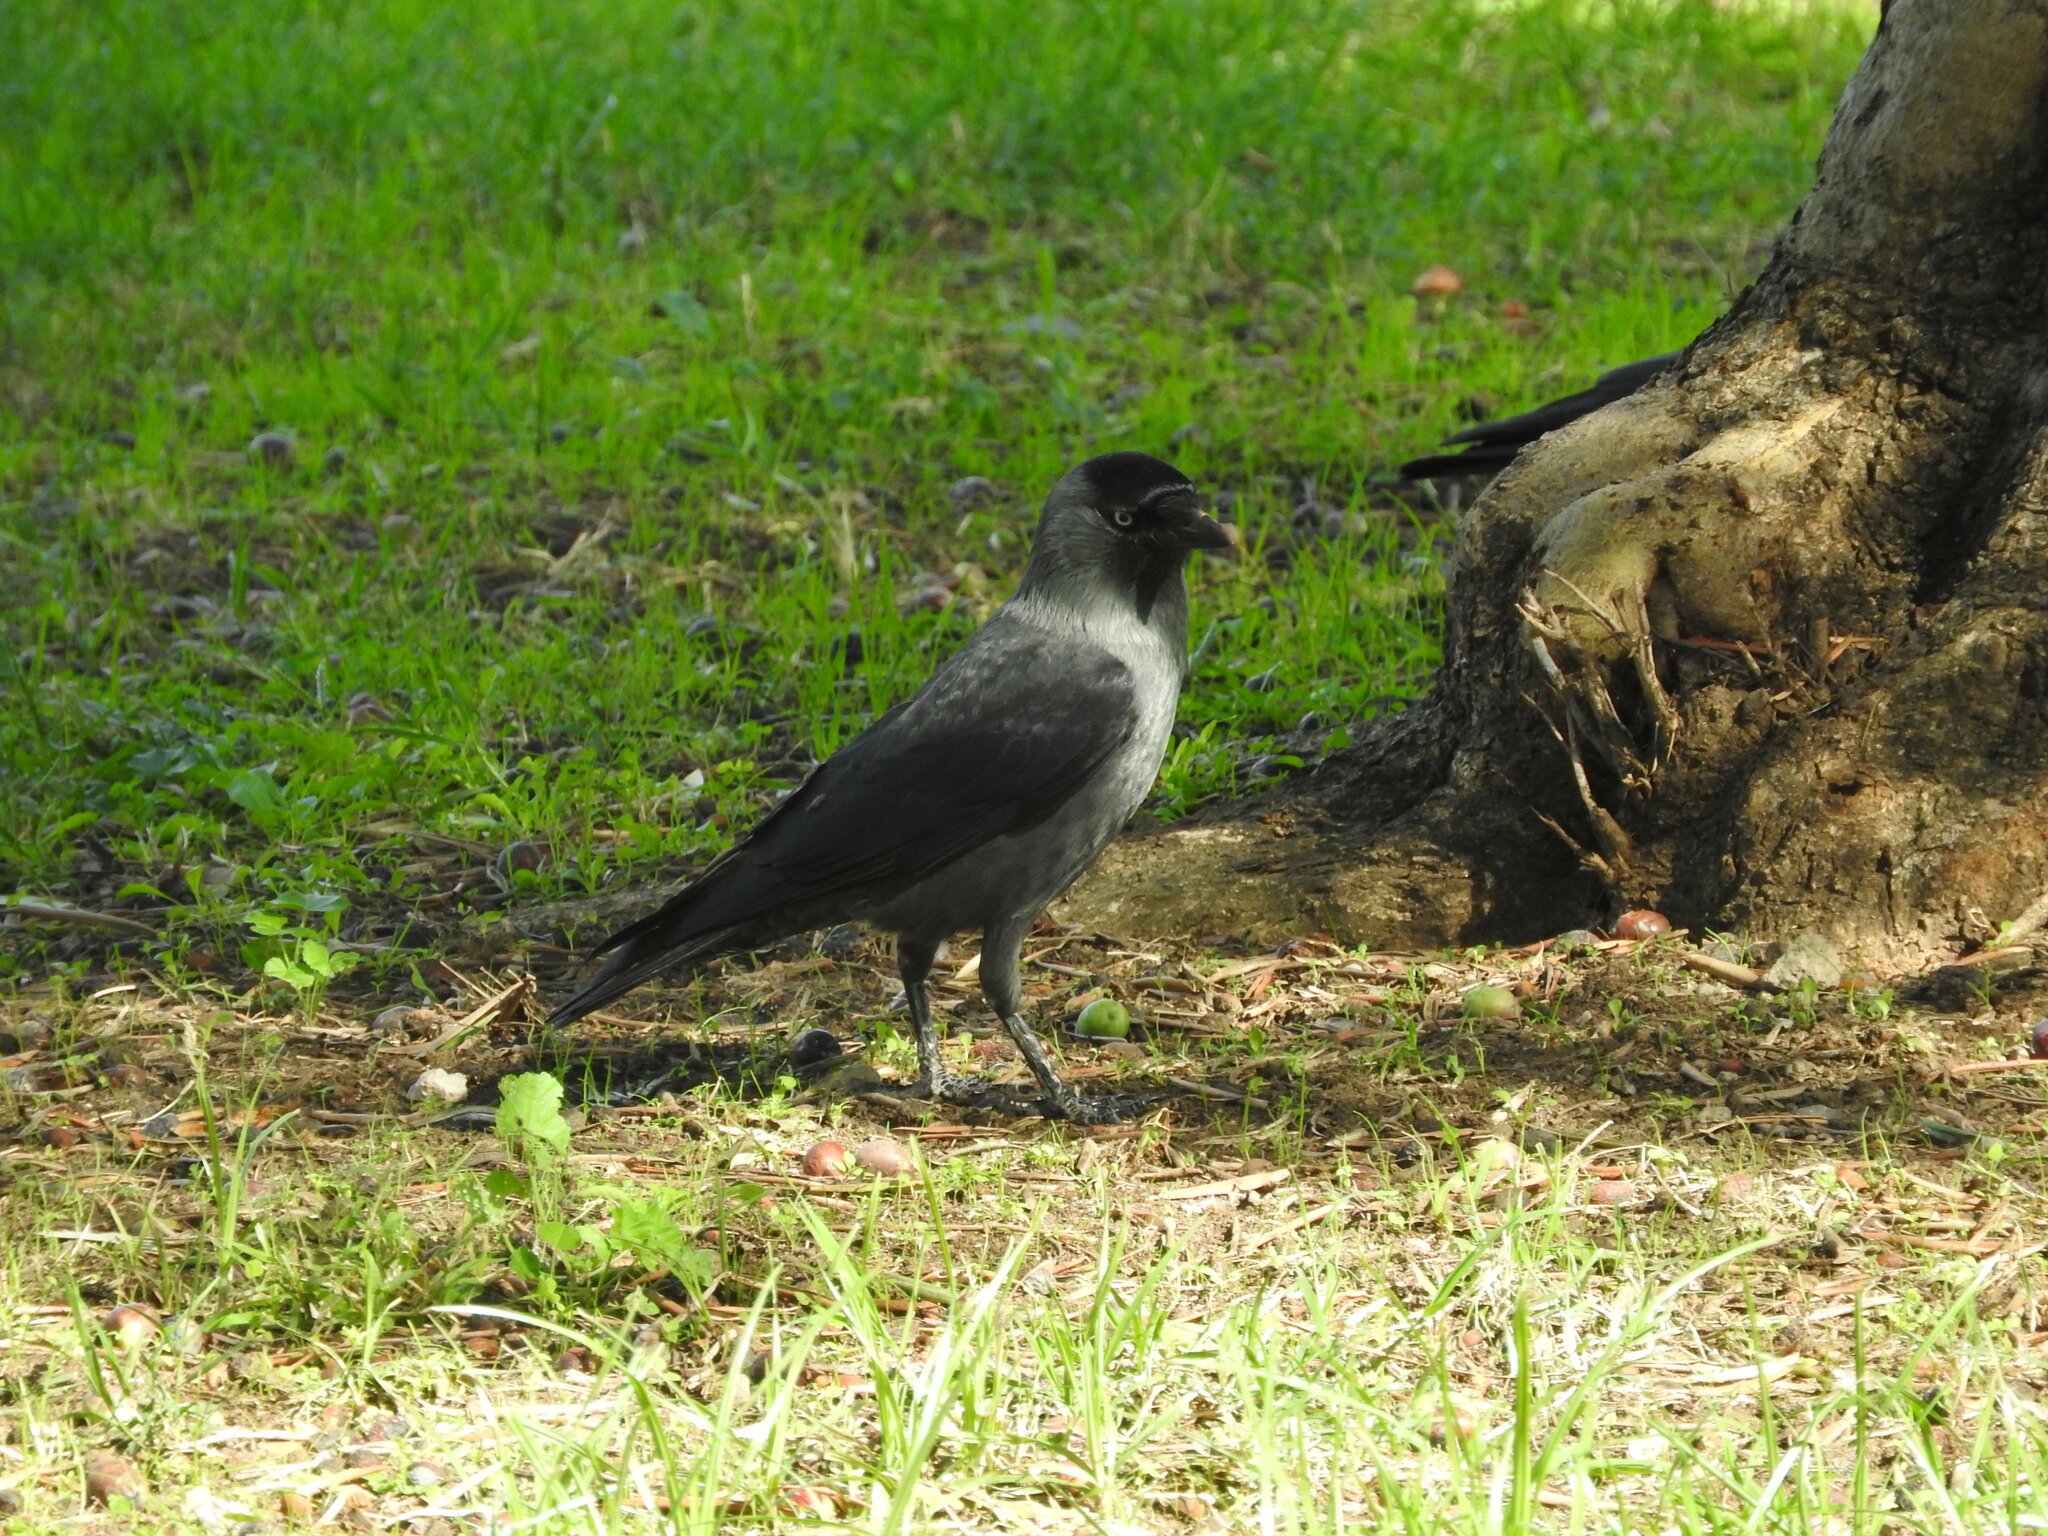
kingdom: Animalia
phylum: Chordata
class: Aves
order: Passeriformes
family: Corvidae
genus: Coloeus
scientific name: Coloeus monedula
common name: Western jackdaw
